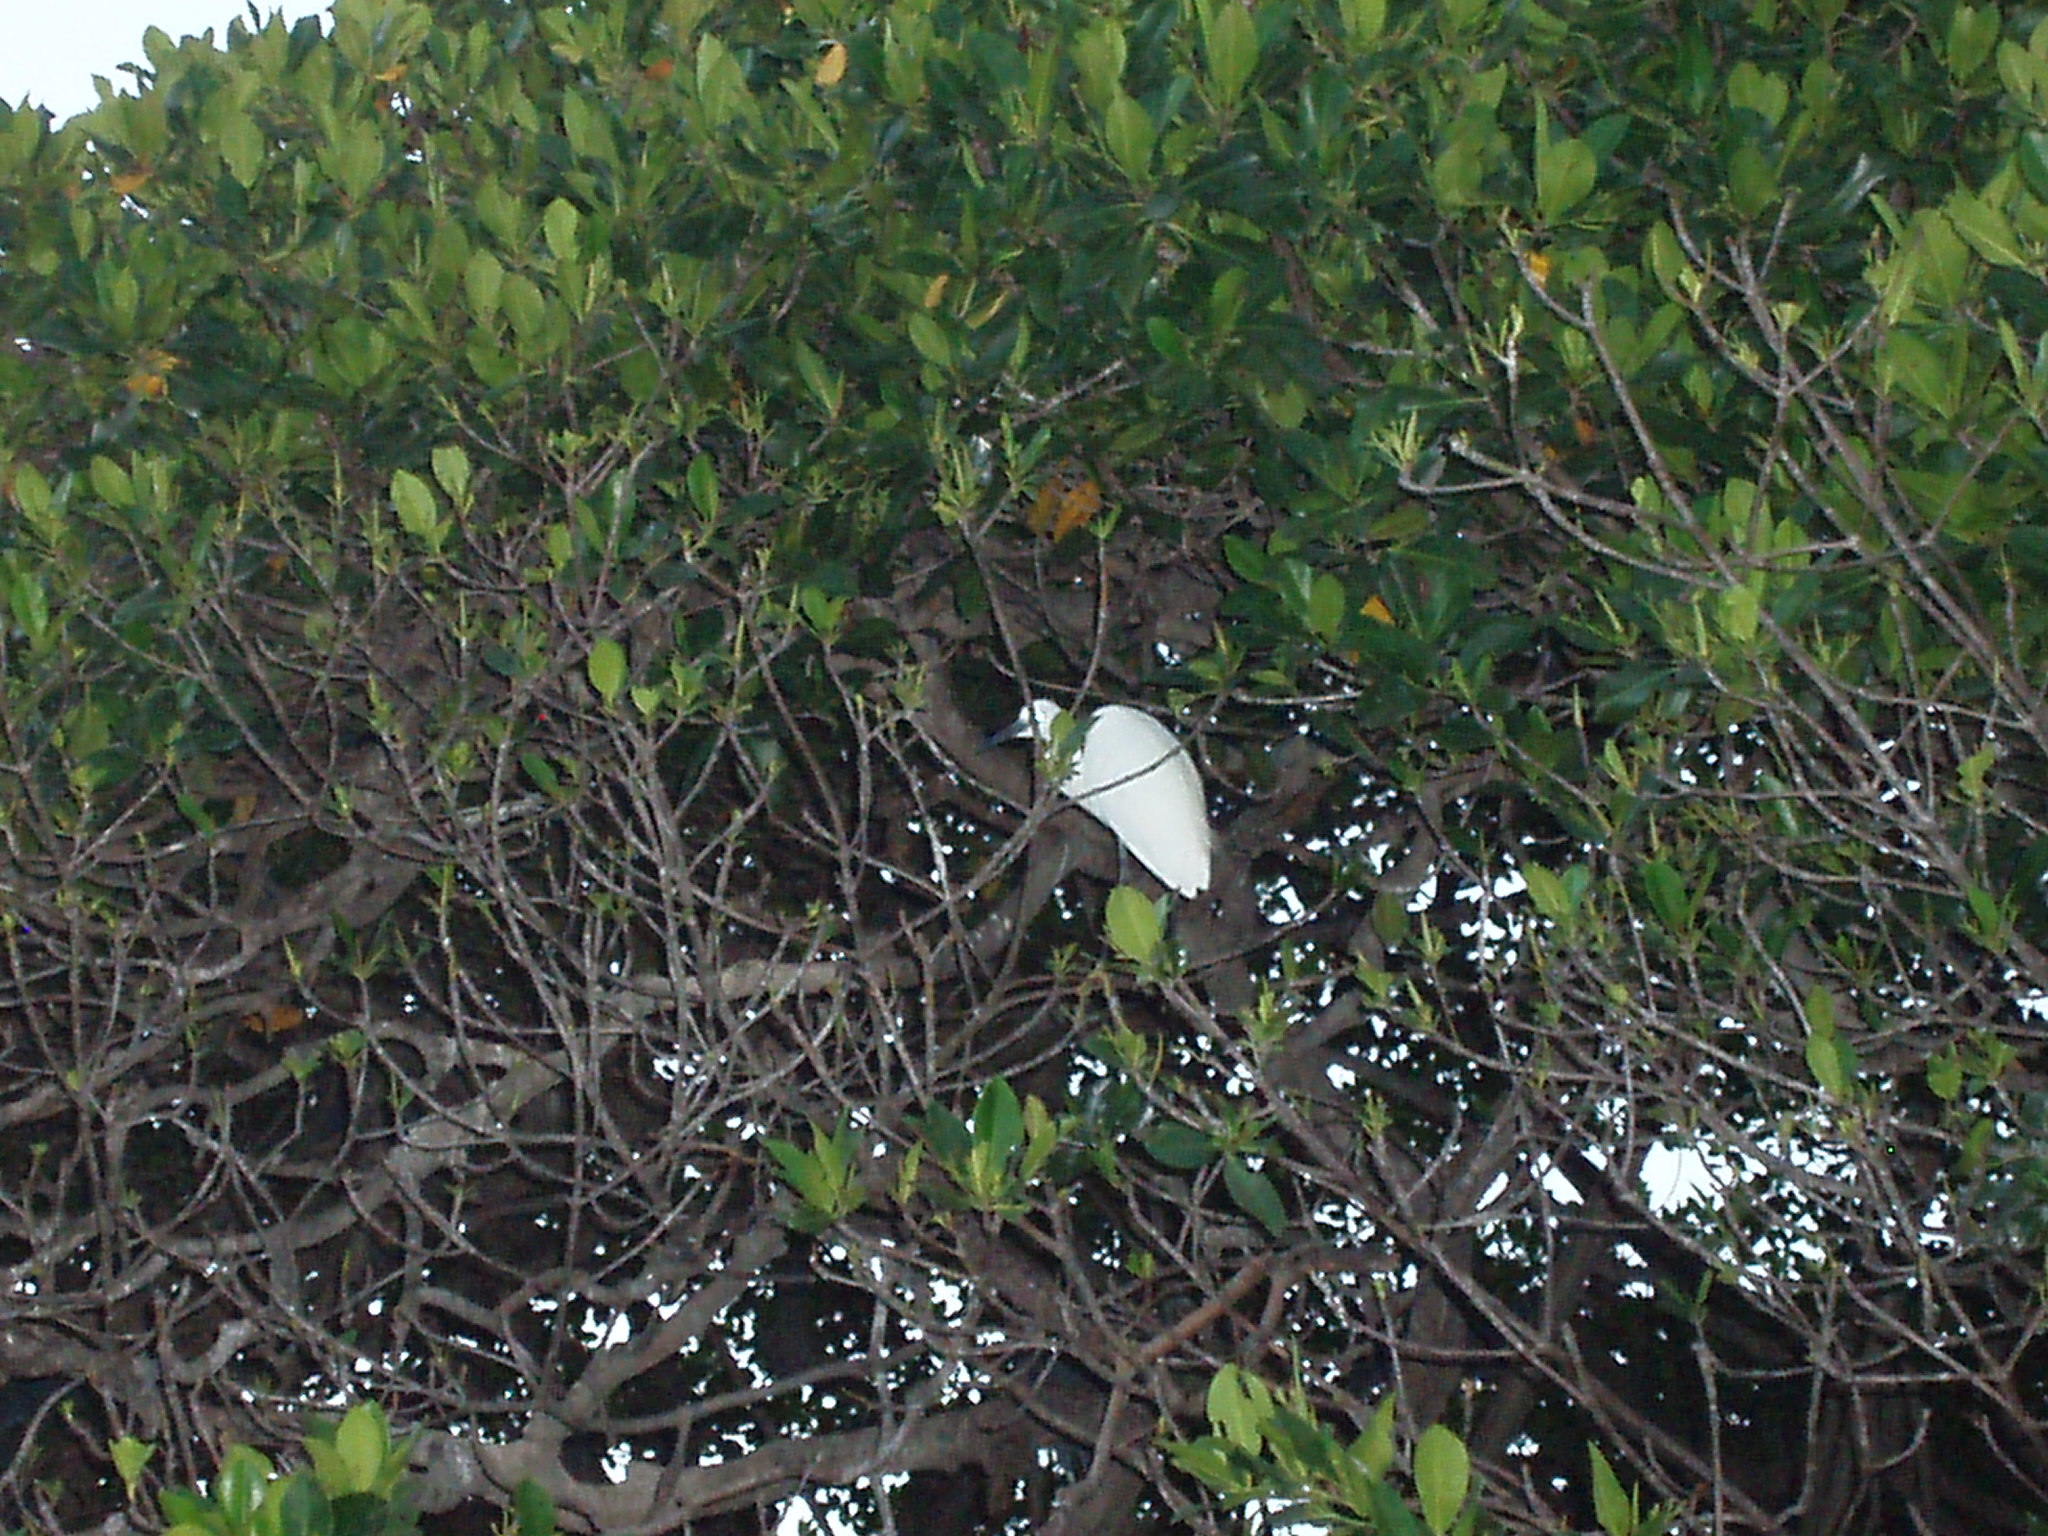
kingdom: Animalia
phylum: Chordata
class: Aves
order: Pelecaniformes
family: Ardeidae
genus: Egretta
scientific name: Egretta garzetta
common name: Little egret
